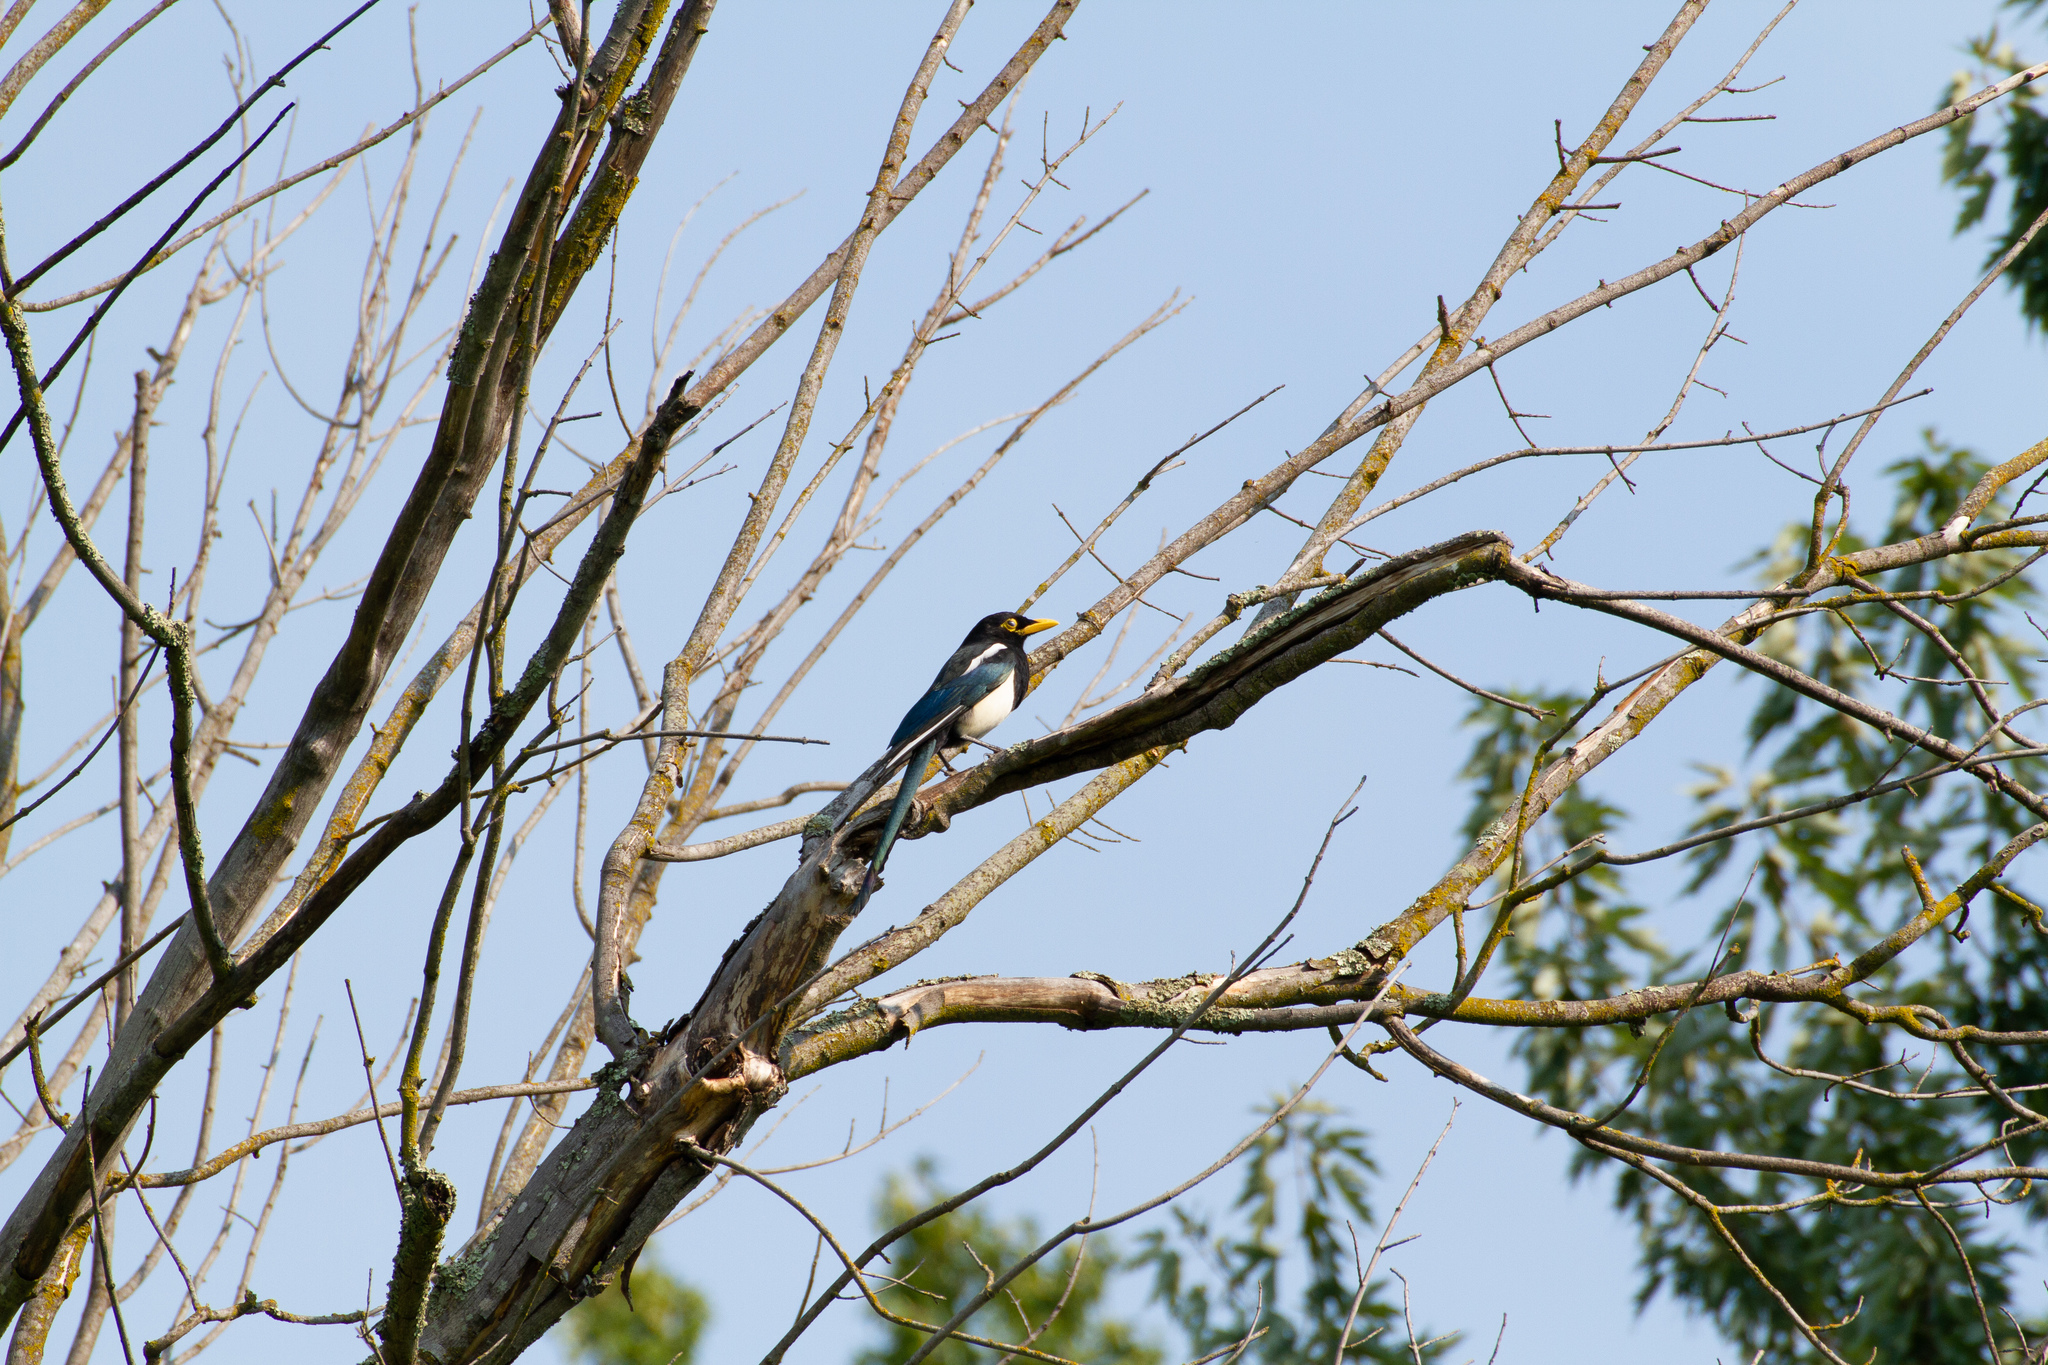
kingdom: Animalia
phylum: Chordata
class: Aves
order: Passeriformes
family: Corvidae
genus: Pica
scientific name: Pica nuttalli
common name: Yellow-billed magpie
